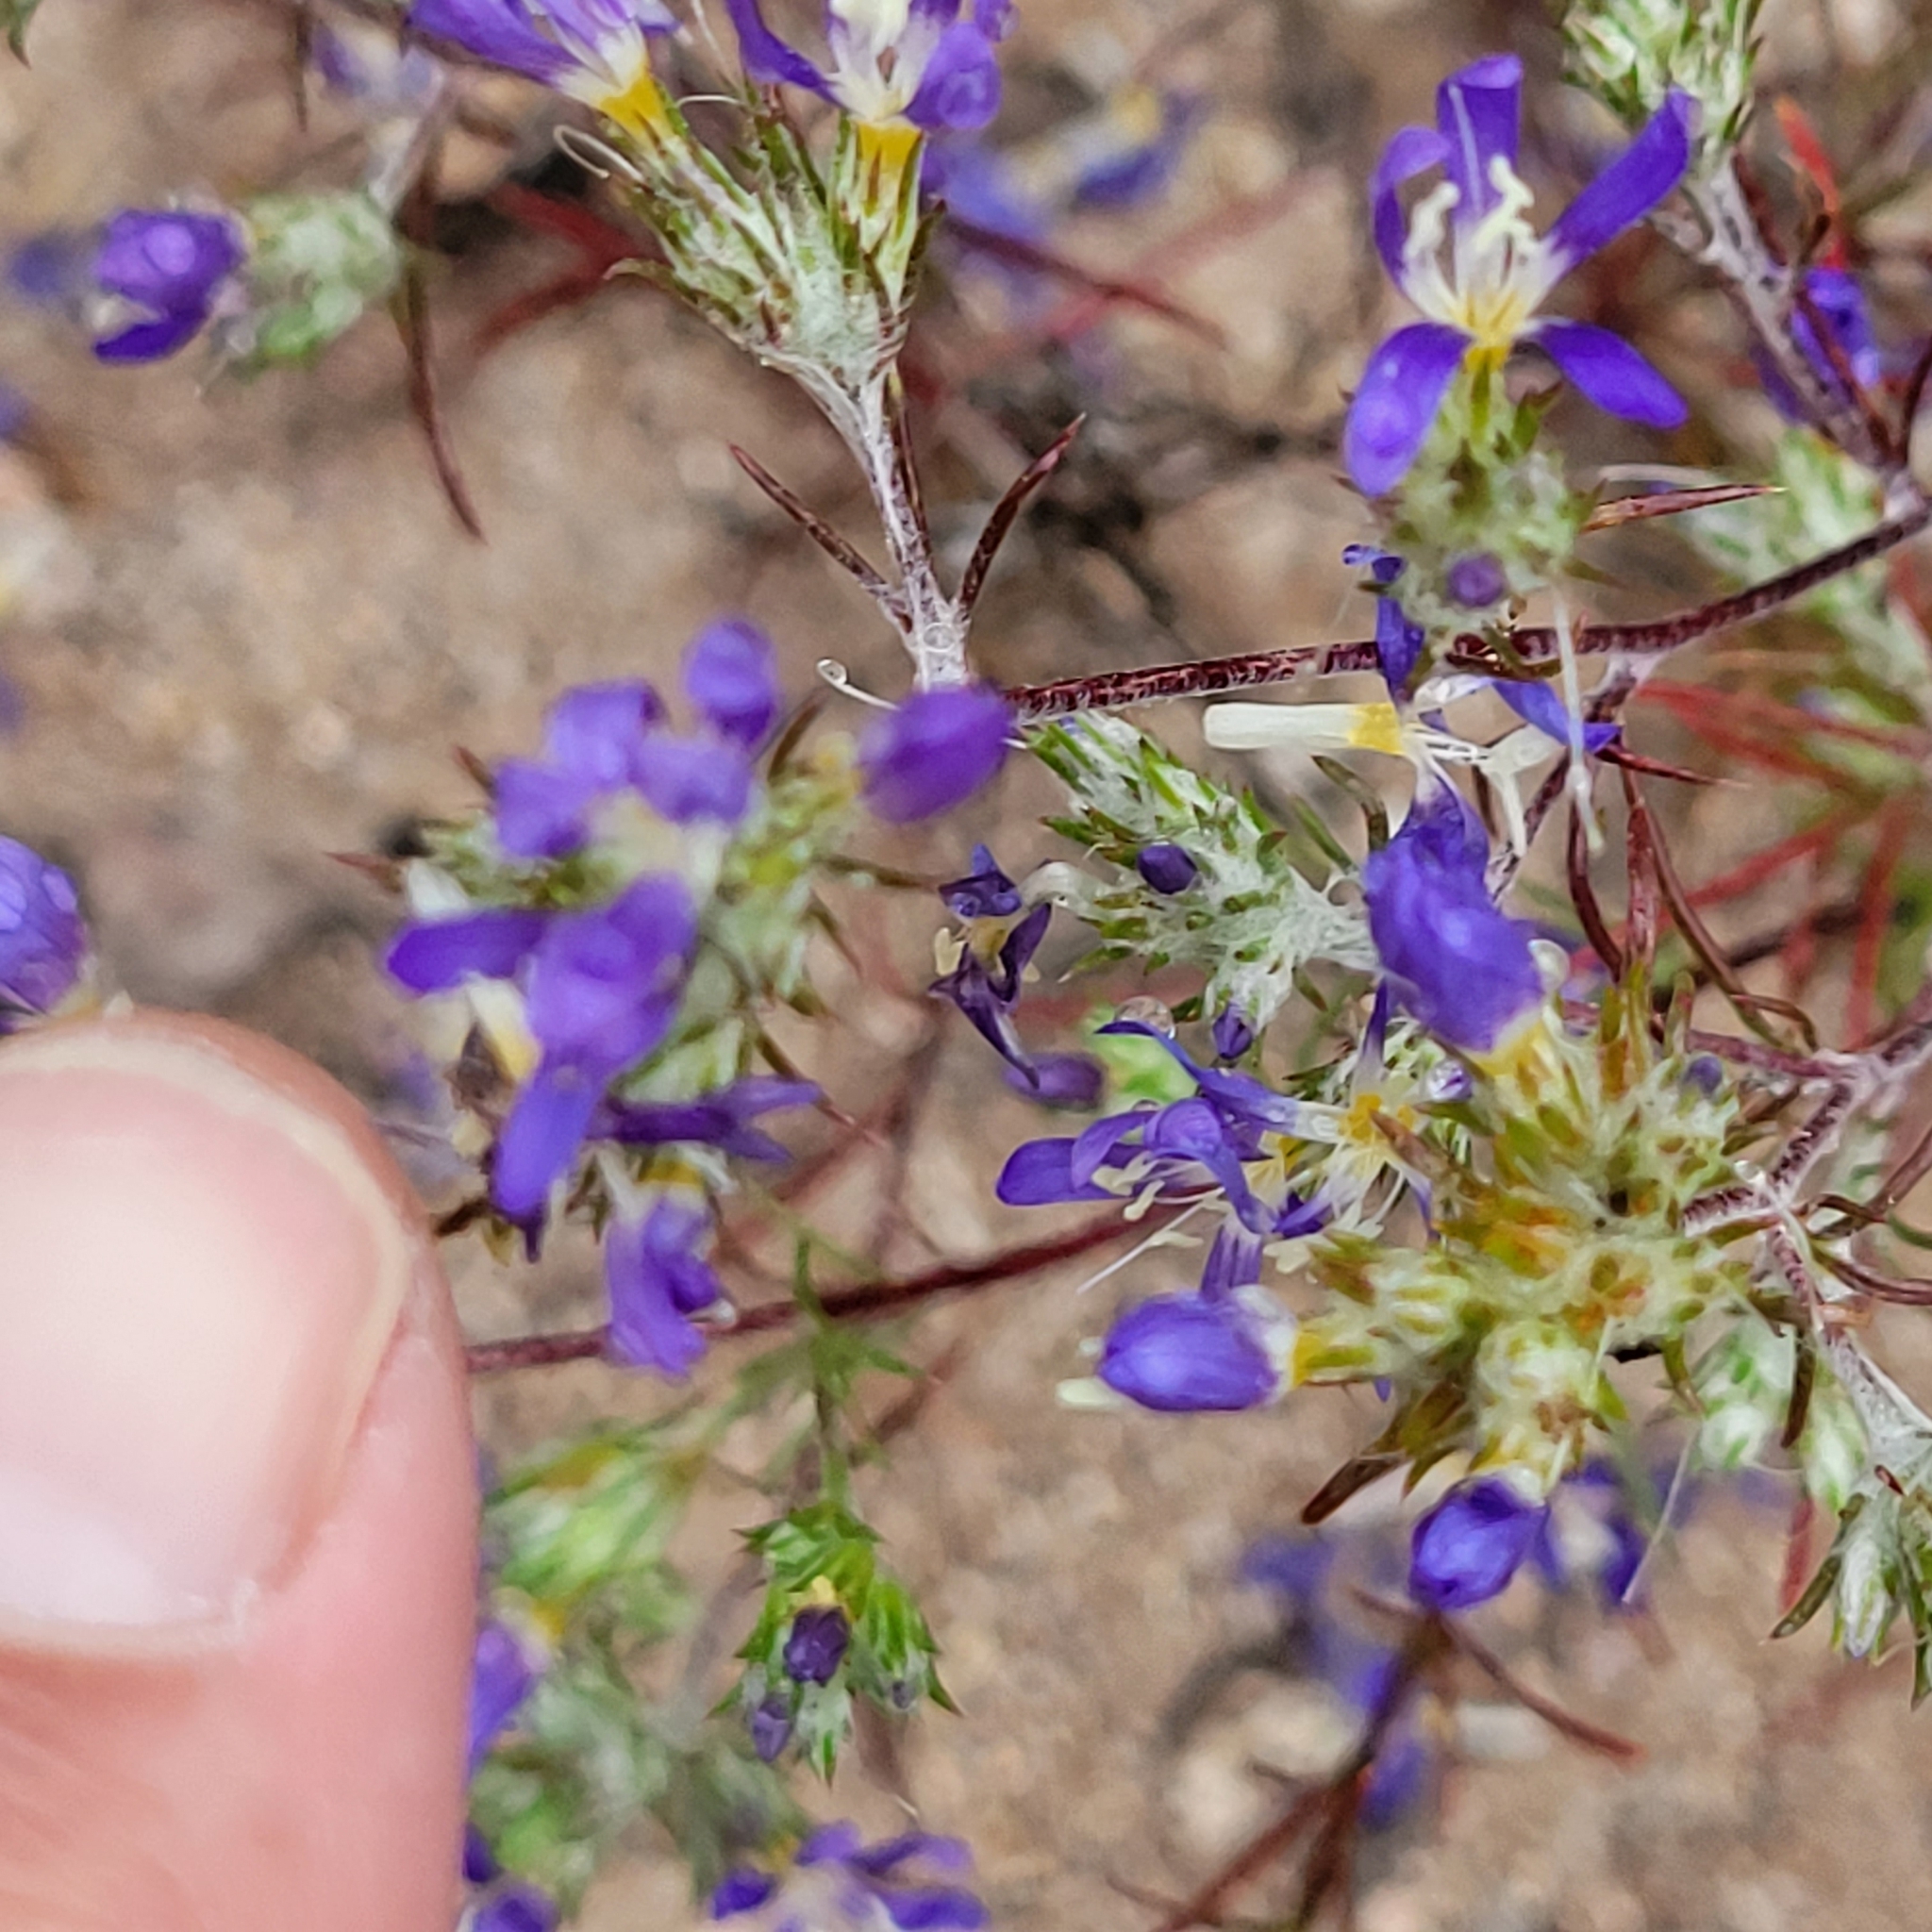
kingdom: Plantae
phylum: Tracheophyta
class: Magnoliopsida
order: Ericales
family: Polemoniaceae
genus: Eriastrum
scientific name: Eriastrum sapphirinum
